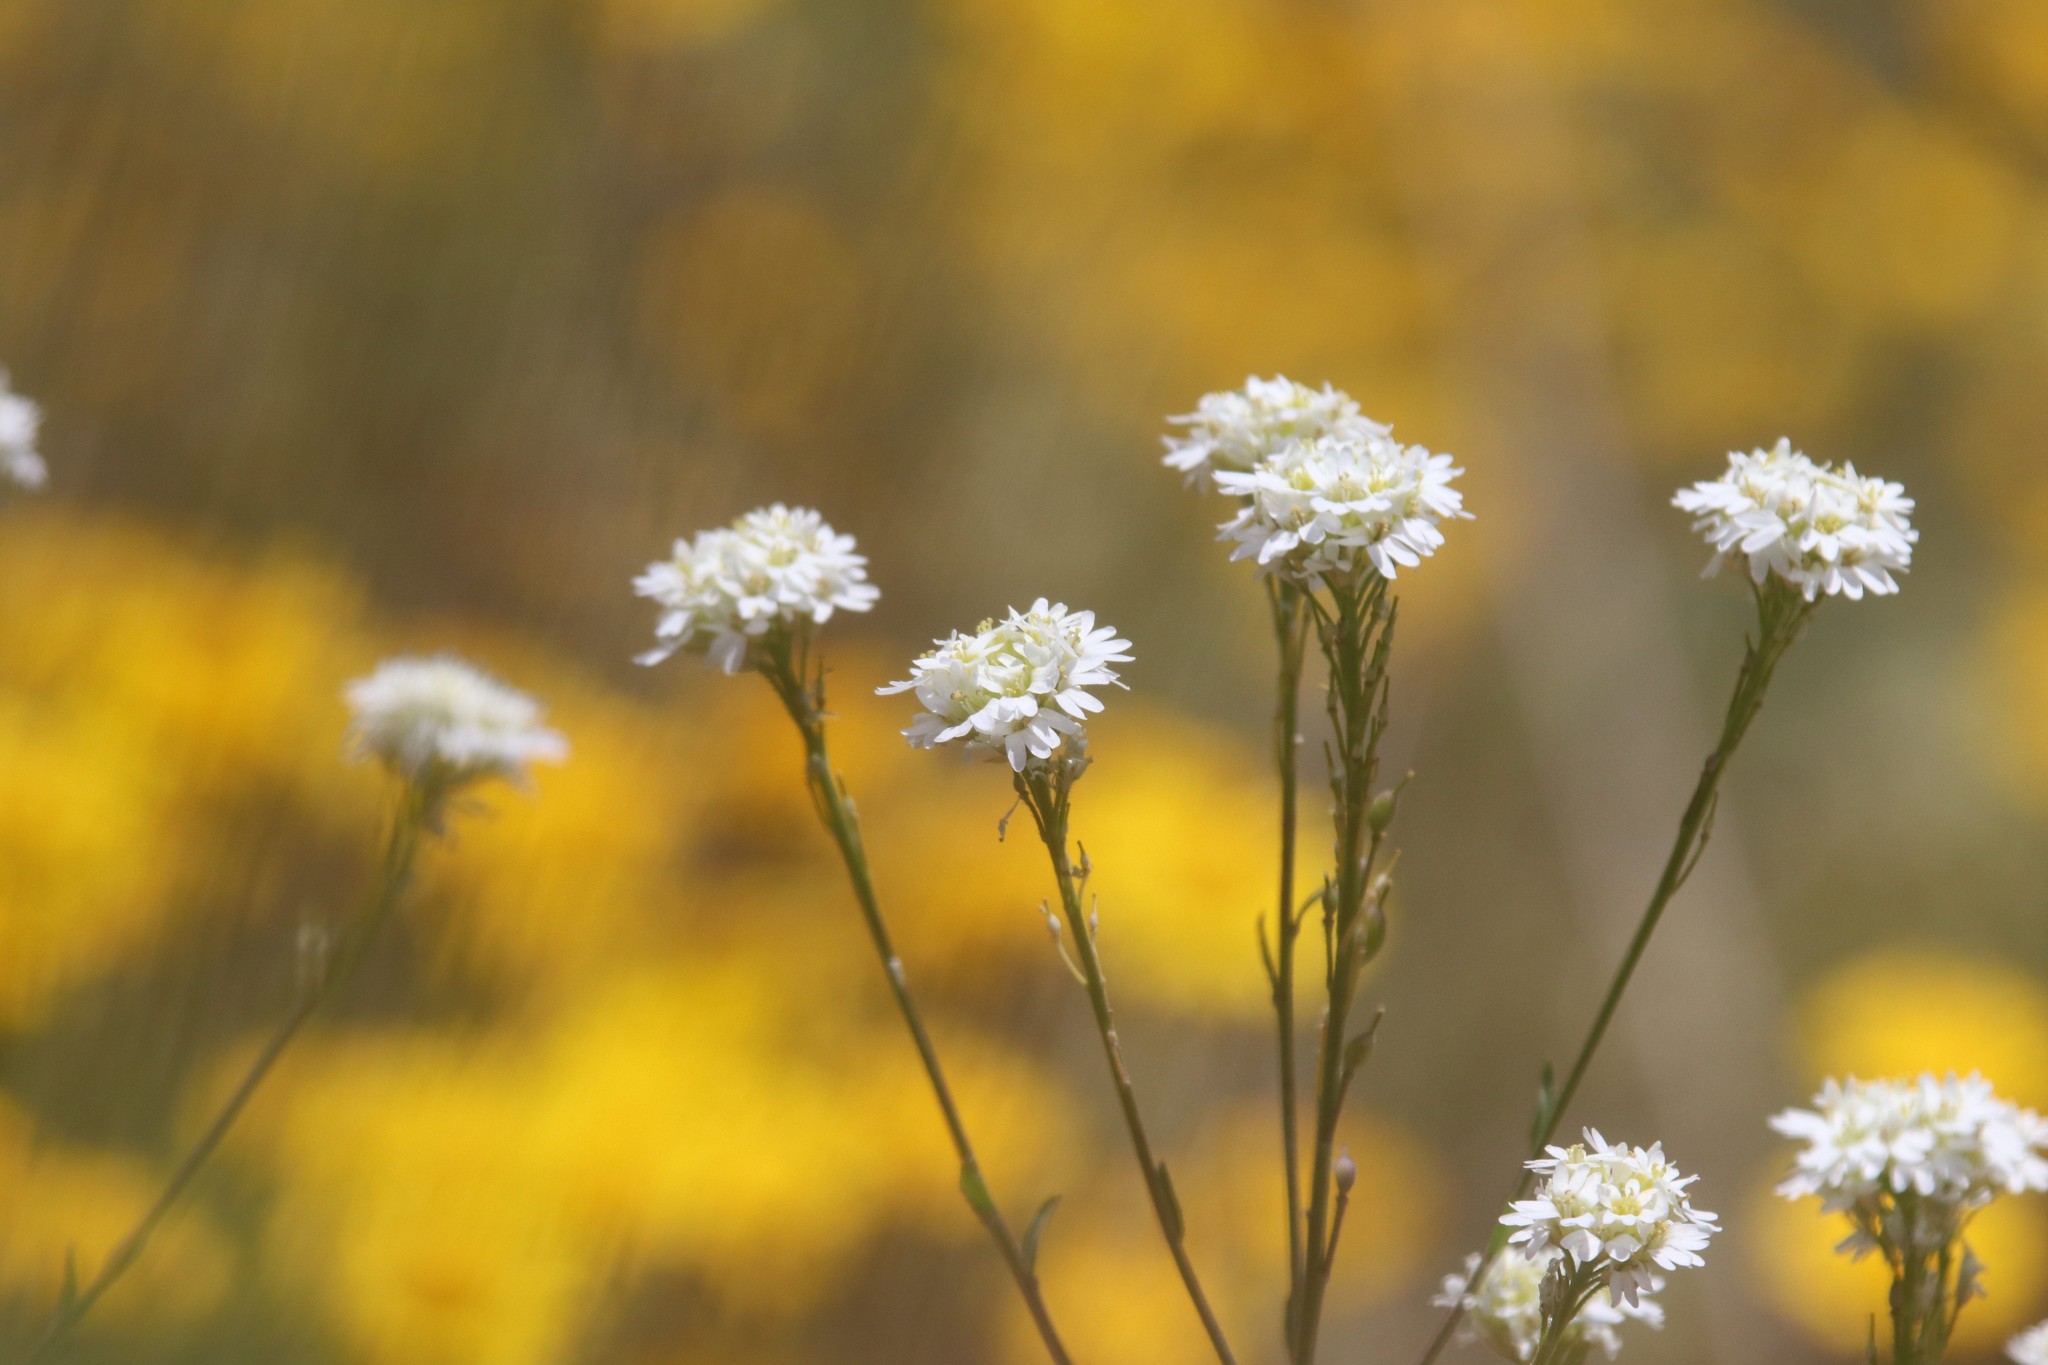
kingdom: Plantae
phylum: Tracheophyta
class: Magnoliopsida
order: Brassicales
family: Brassicaceae
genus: Berteroa
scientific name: Berteroa incana
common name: Hoary alison
